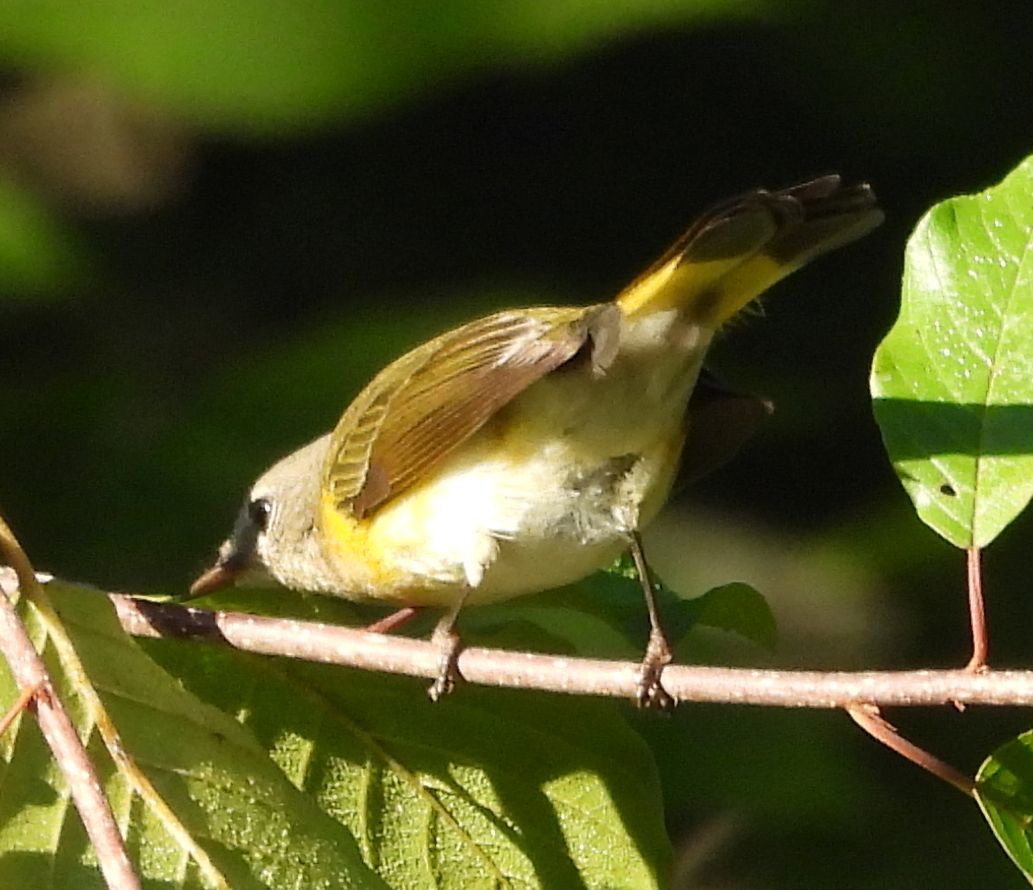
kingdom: Animalia
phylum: Chordata
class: Aves
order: Passeriformes
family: Parulidae
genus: Setophaga
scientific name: Setophaga ruticilla
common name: American redstart
